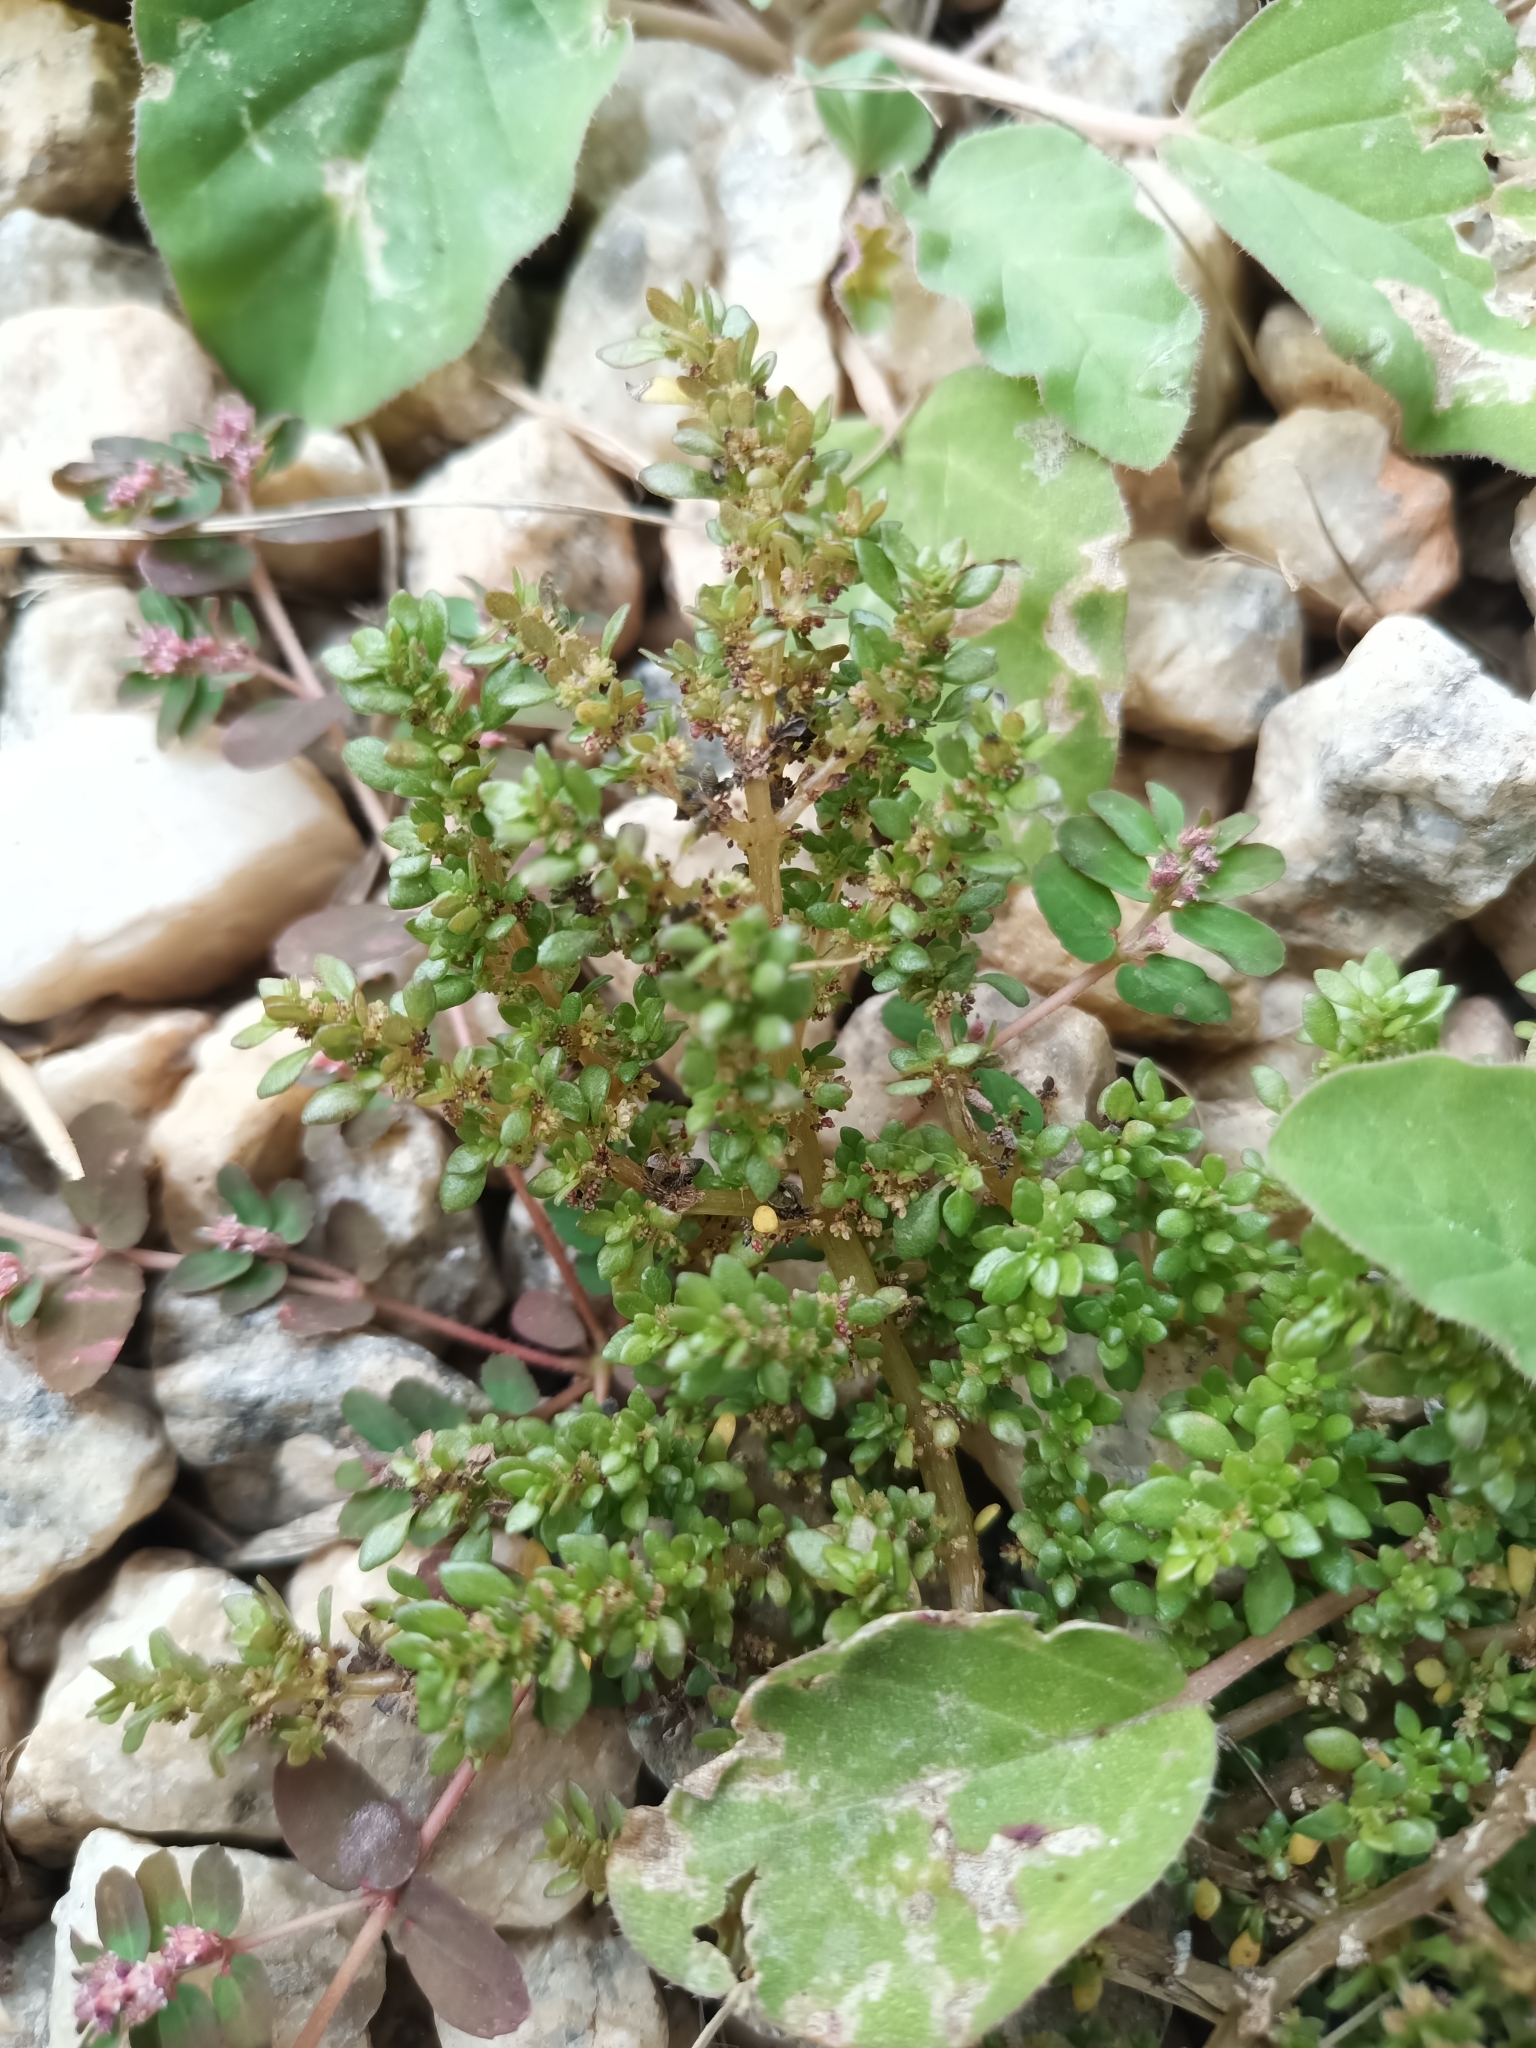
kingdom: Plantae
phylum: Tracheophyta
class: Magnoliopsida
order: Rosales
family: Urticaceae
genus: Pilea
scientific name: Pilea microphylla
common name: Artillery-plant
